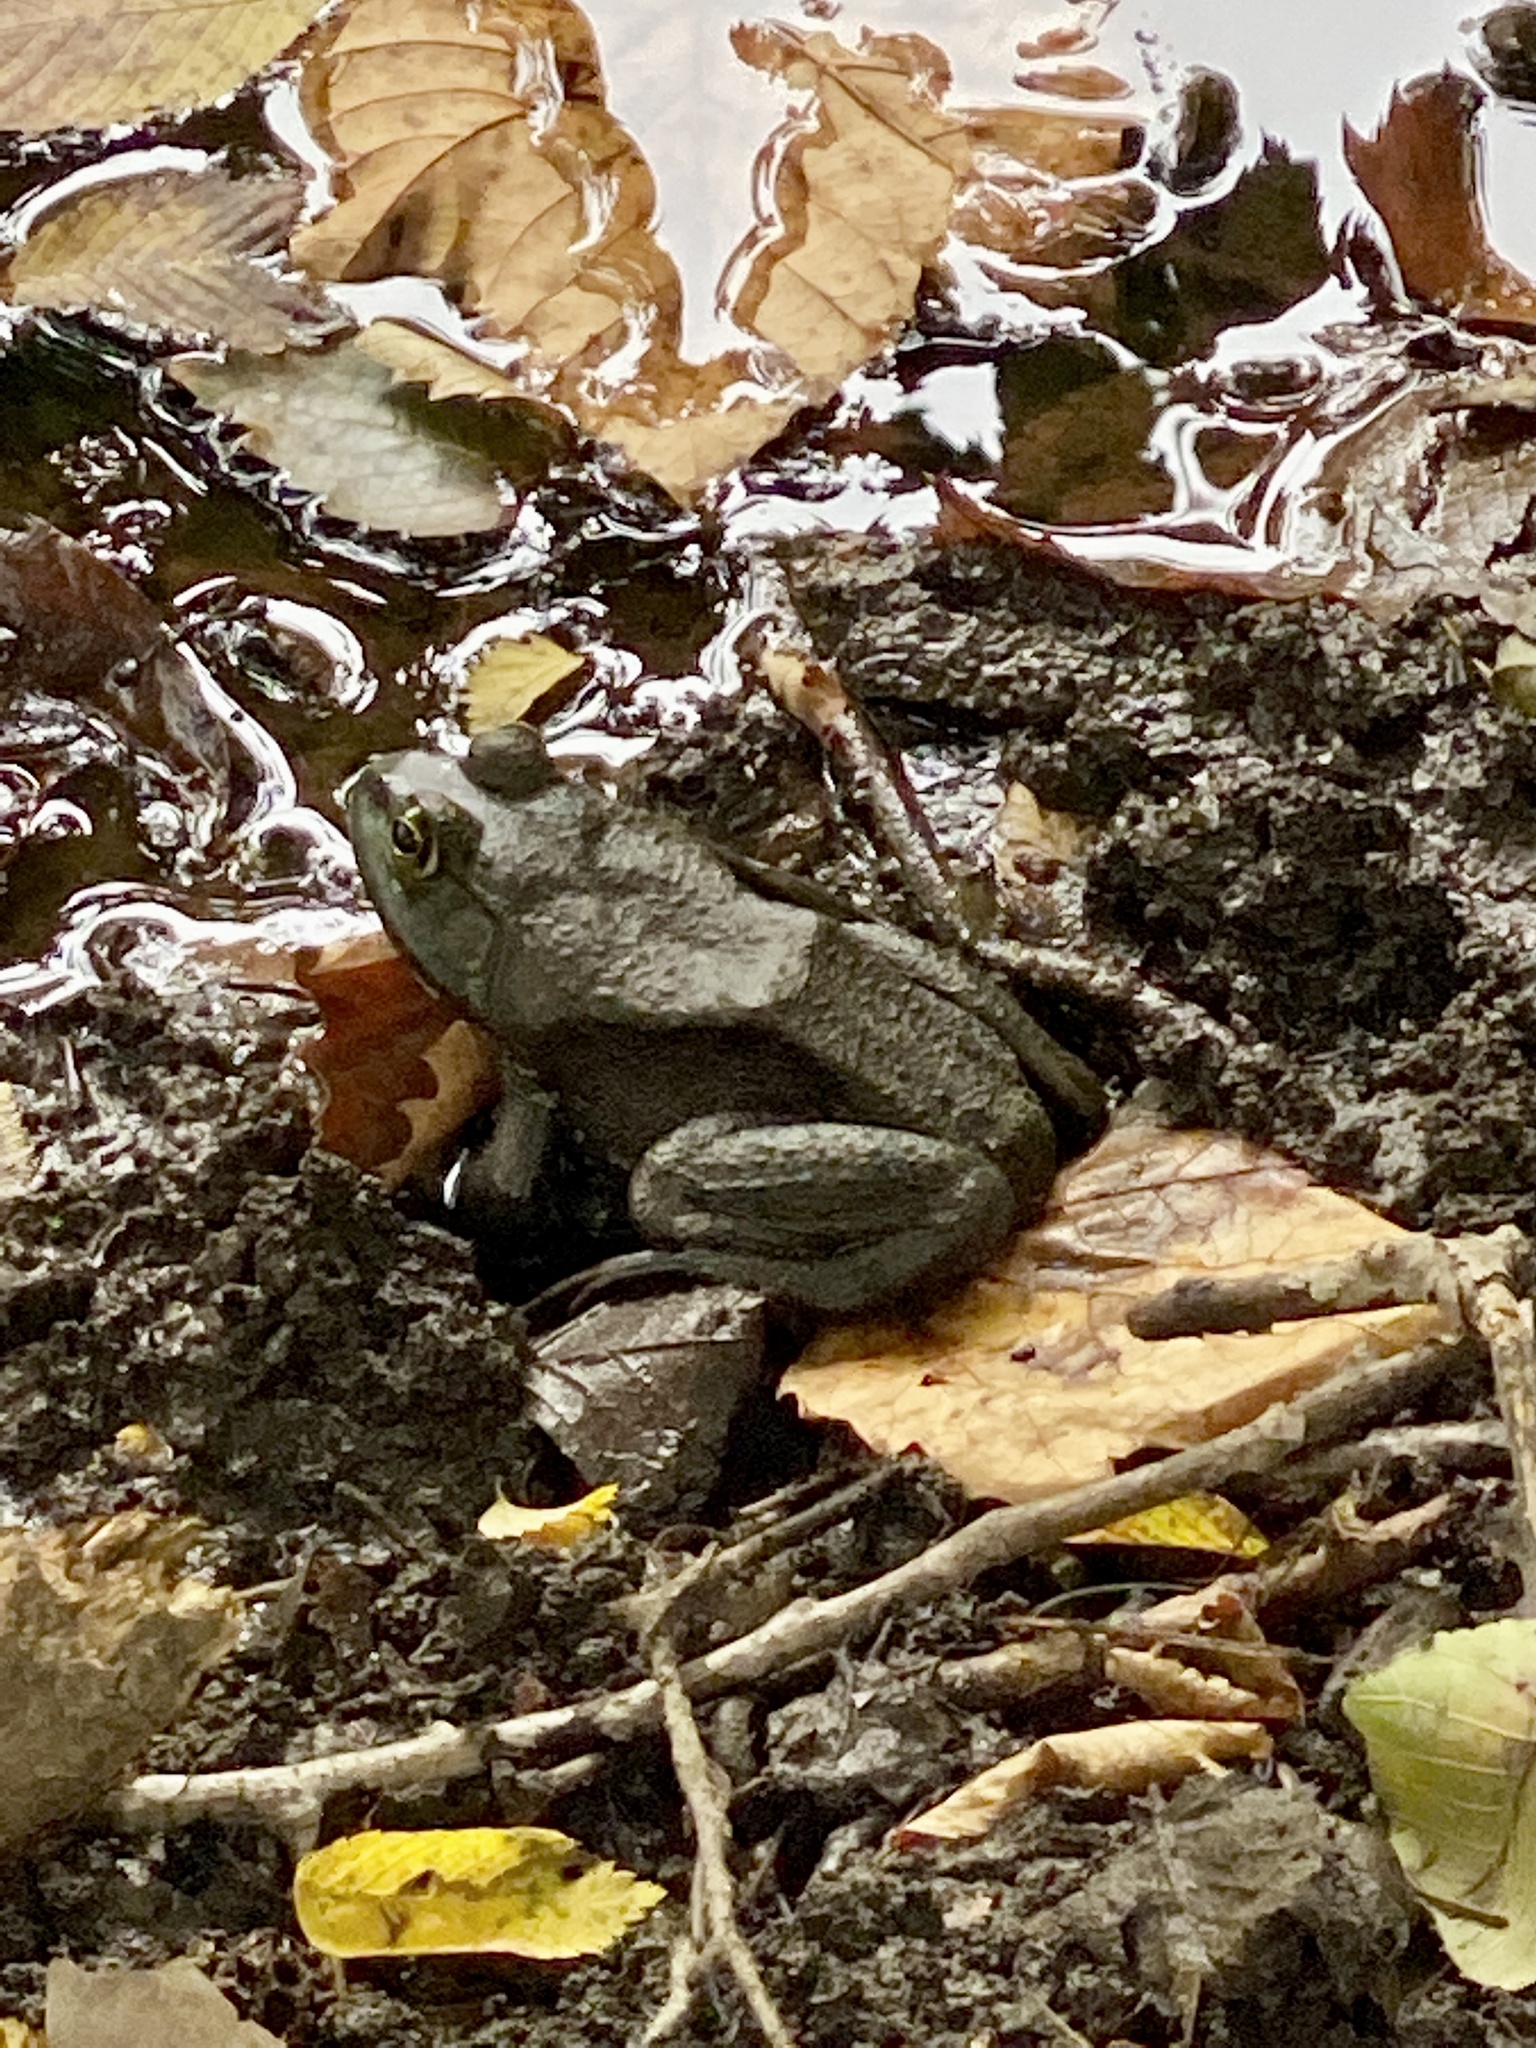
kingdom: Animalia
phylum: Chordata
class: Amphibia
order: Anura
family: Ranidae
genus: Lithobates
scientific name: Lithobates catesbeianus
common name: American bullfrog
